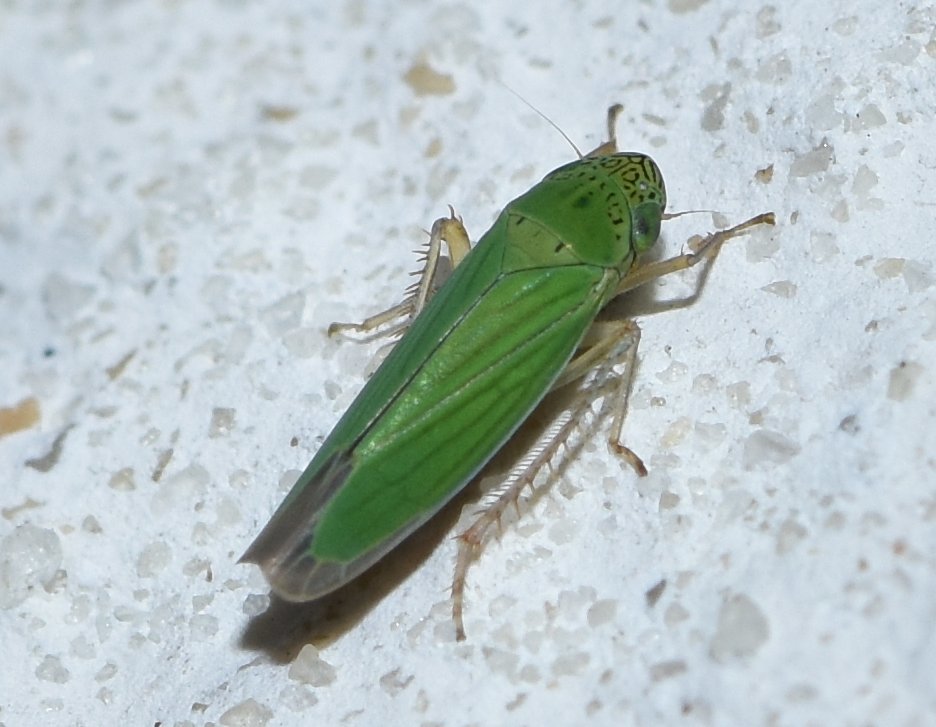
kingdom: Animalia
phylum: Arthropoda
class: Insecta
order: Hemiptera
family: Cicadellidae
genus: Hortensia
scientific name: Hortensia similis
